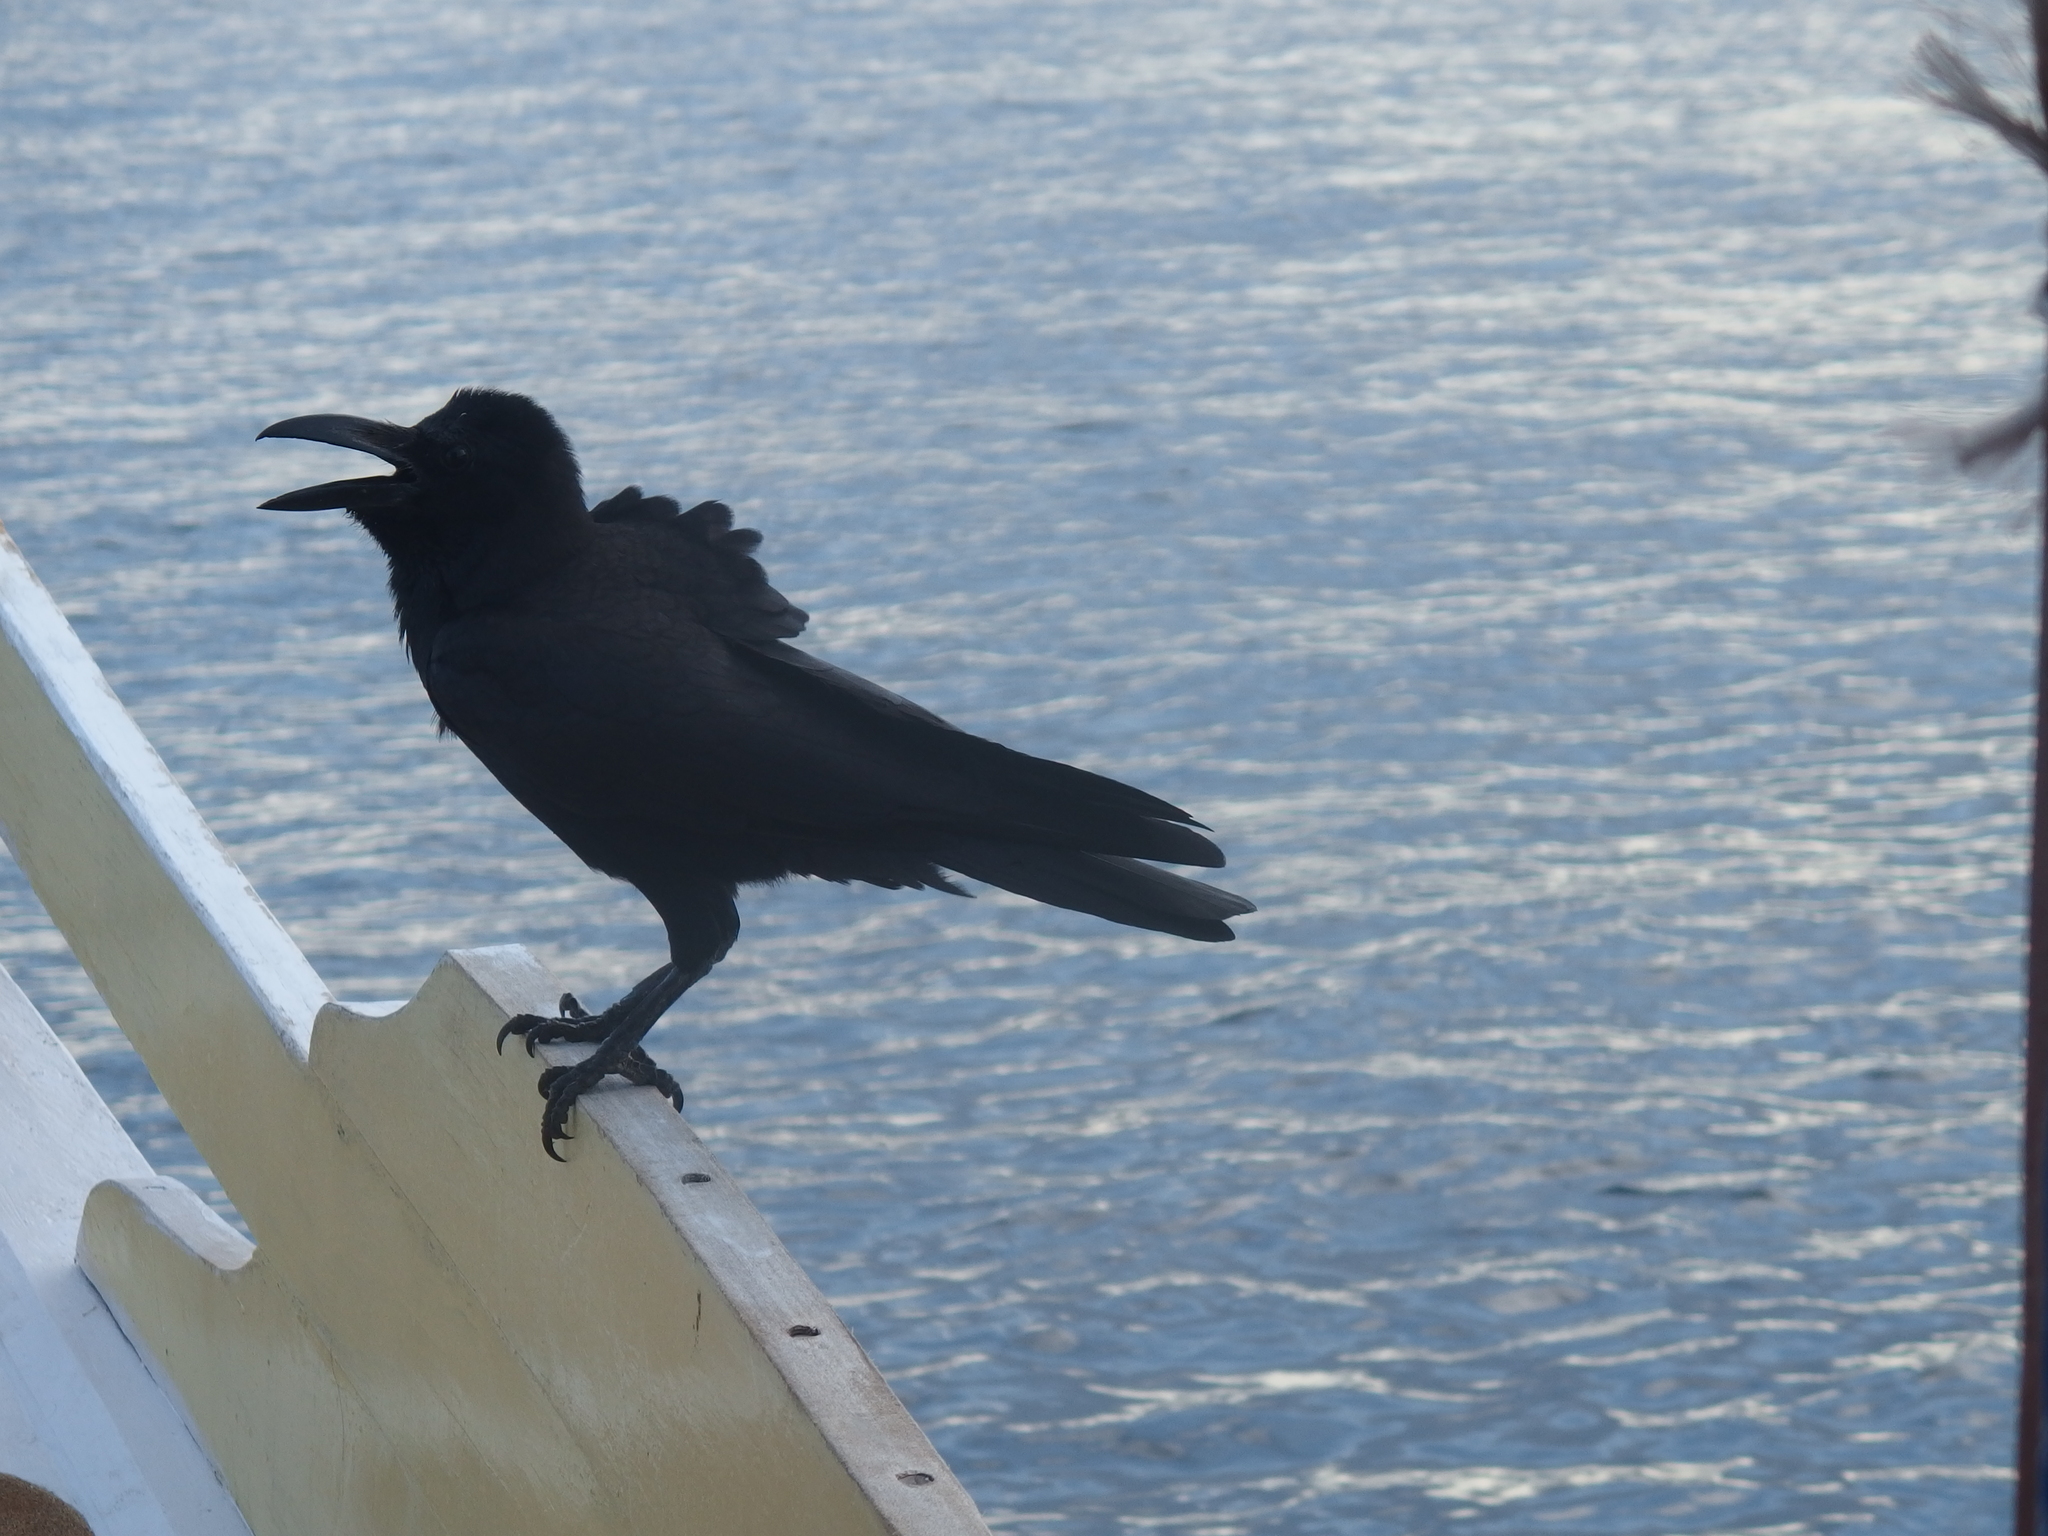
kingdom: Animalia
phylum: Chordata
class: Aves
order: Passeriformes
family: Corvidae
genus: Corvus
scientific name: Corvus macrorhynchos
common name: Large-billed crow
